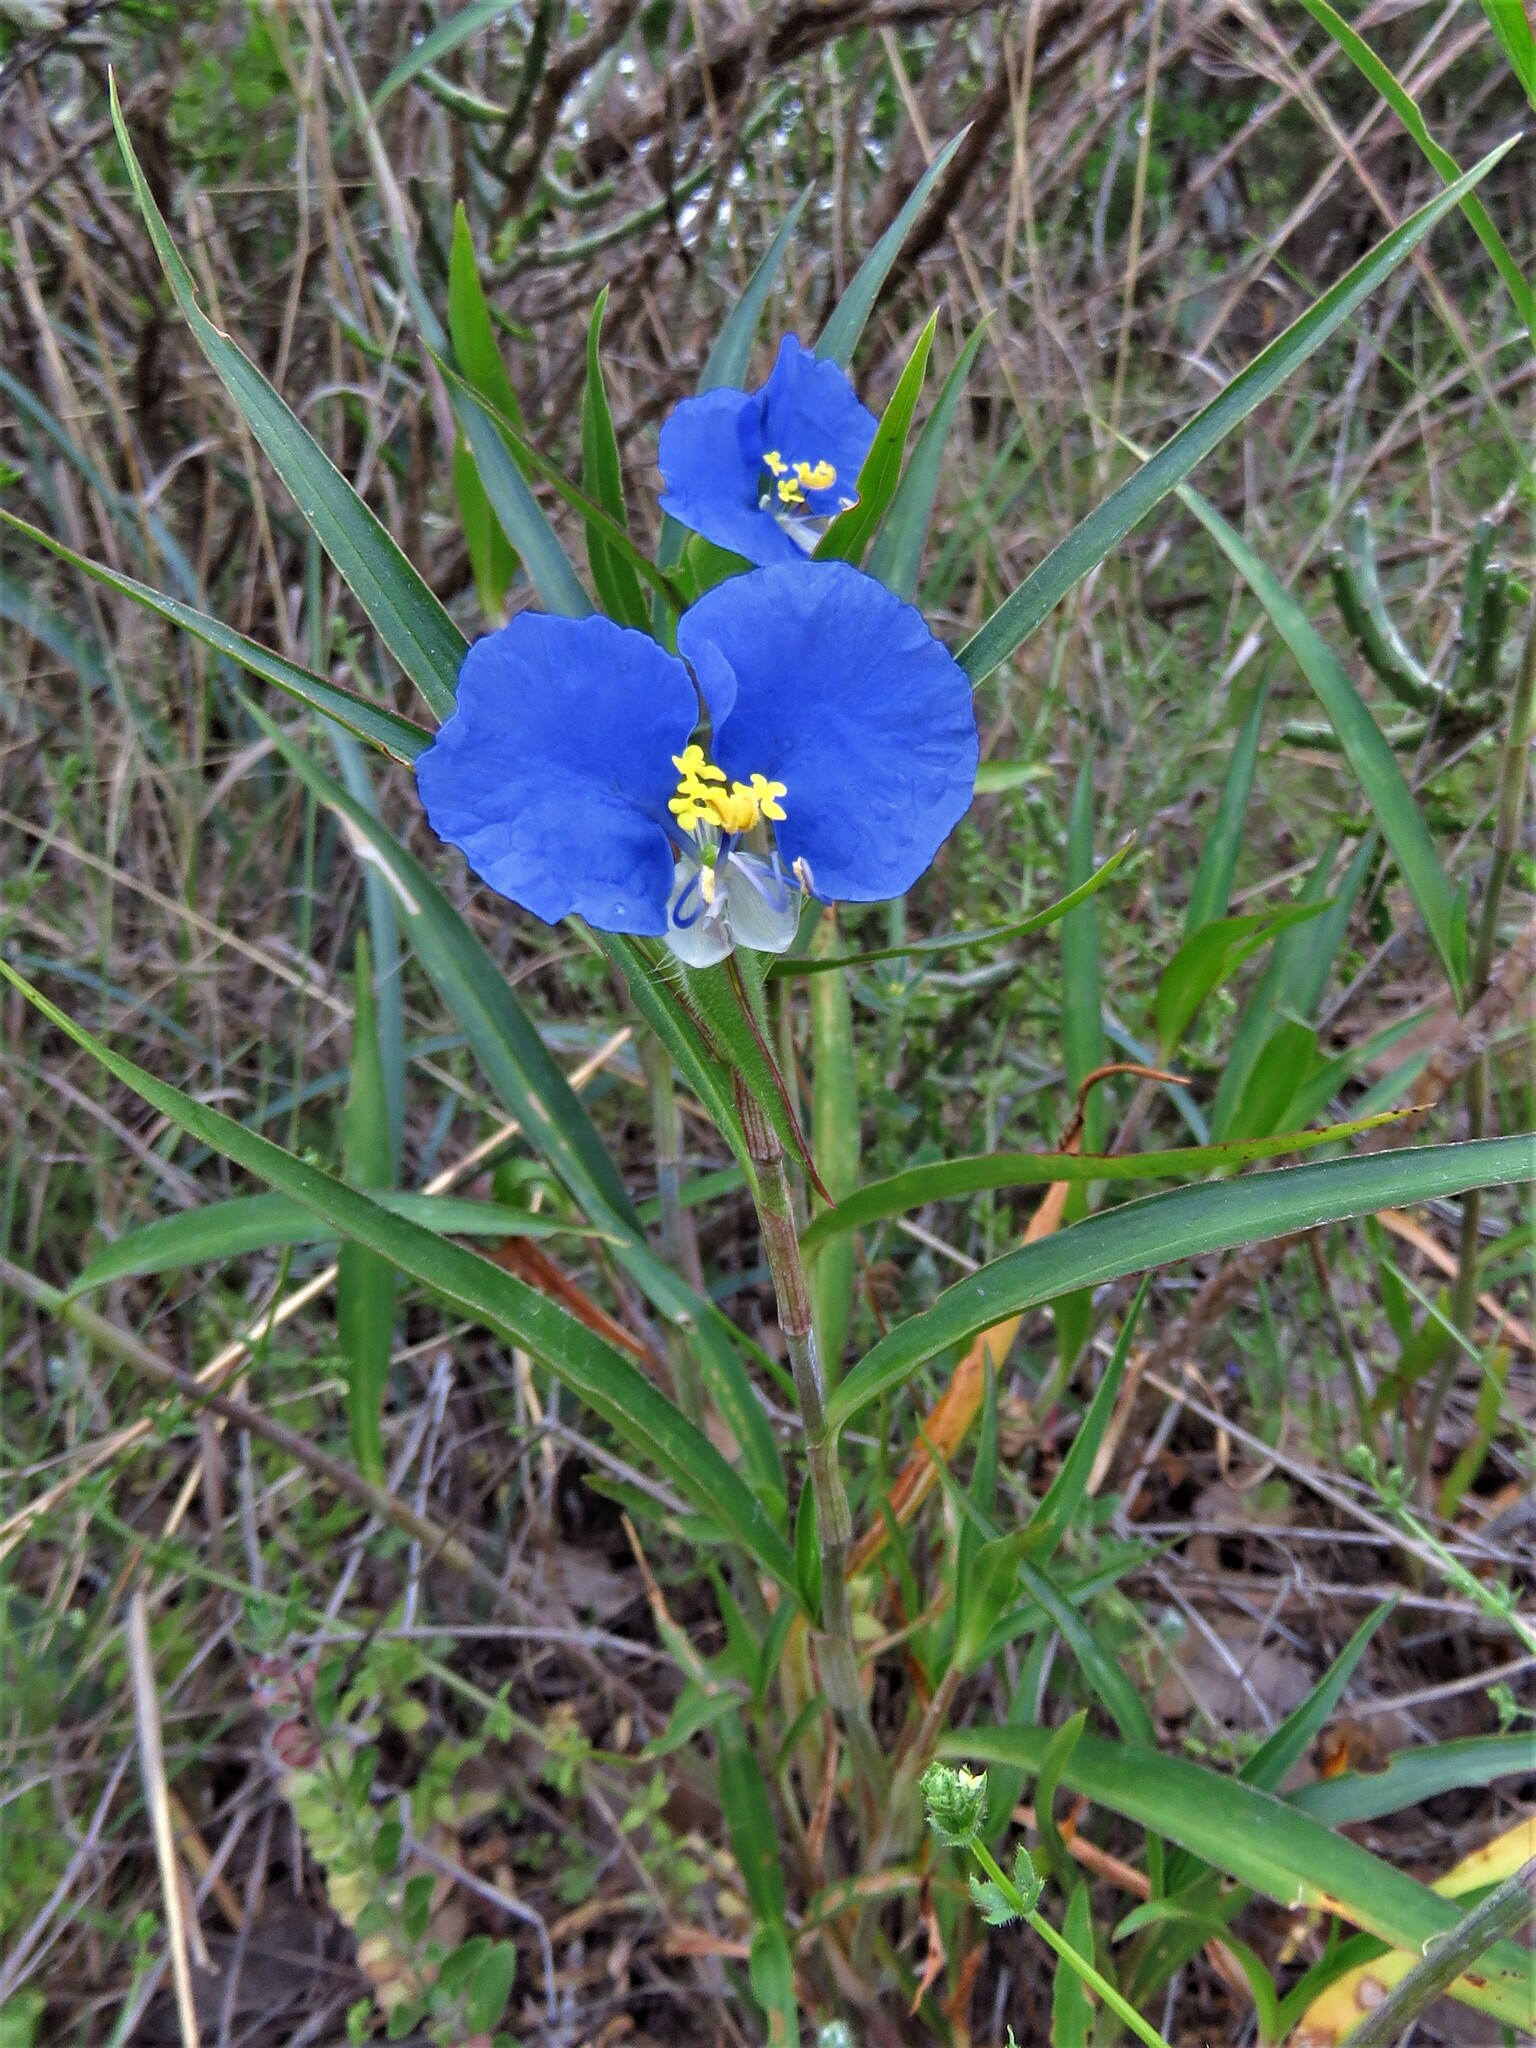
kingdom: Plantae
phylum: Tracheophyta
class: Liliopsida
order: Commelinales
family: Commelinaceae
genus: Commelina
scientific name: Commelina erecta
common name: Blousel blommetjie
